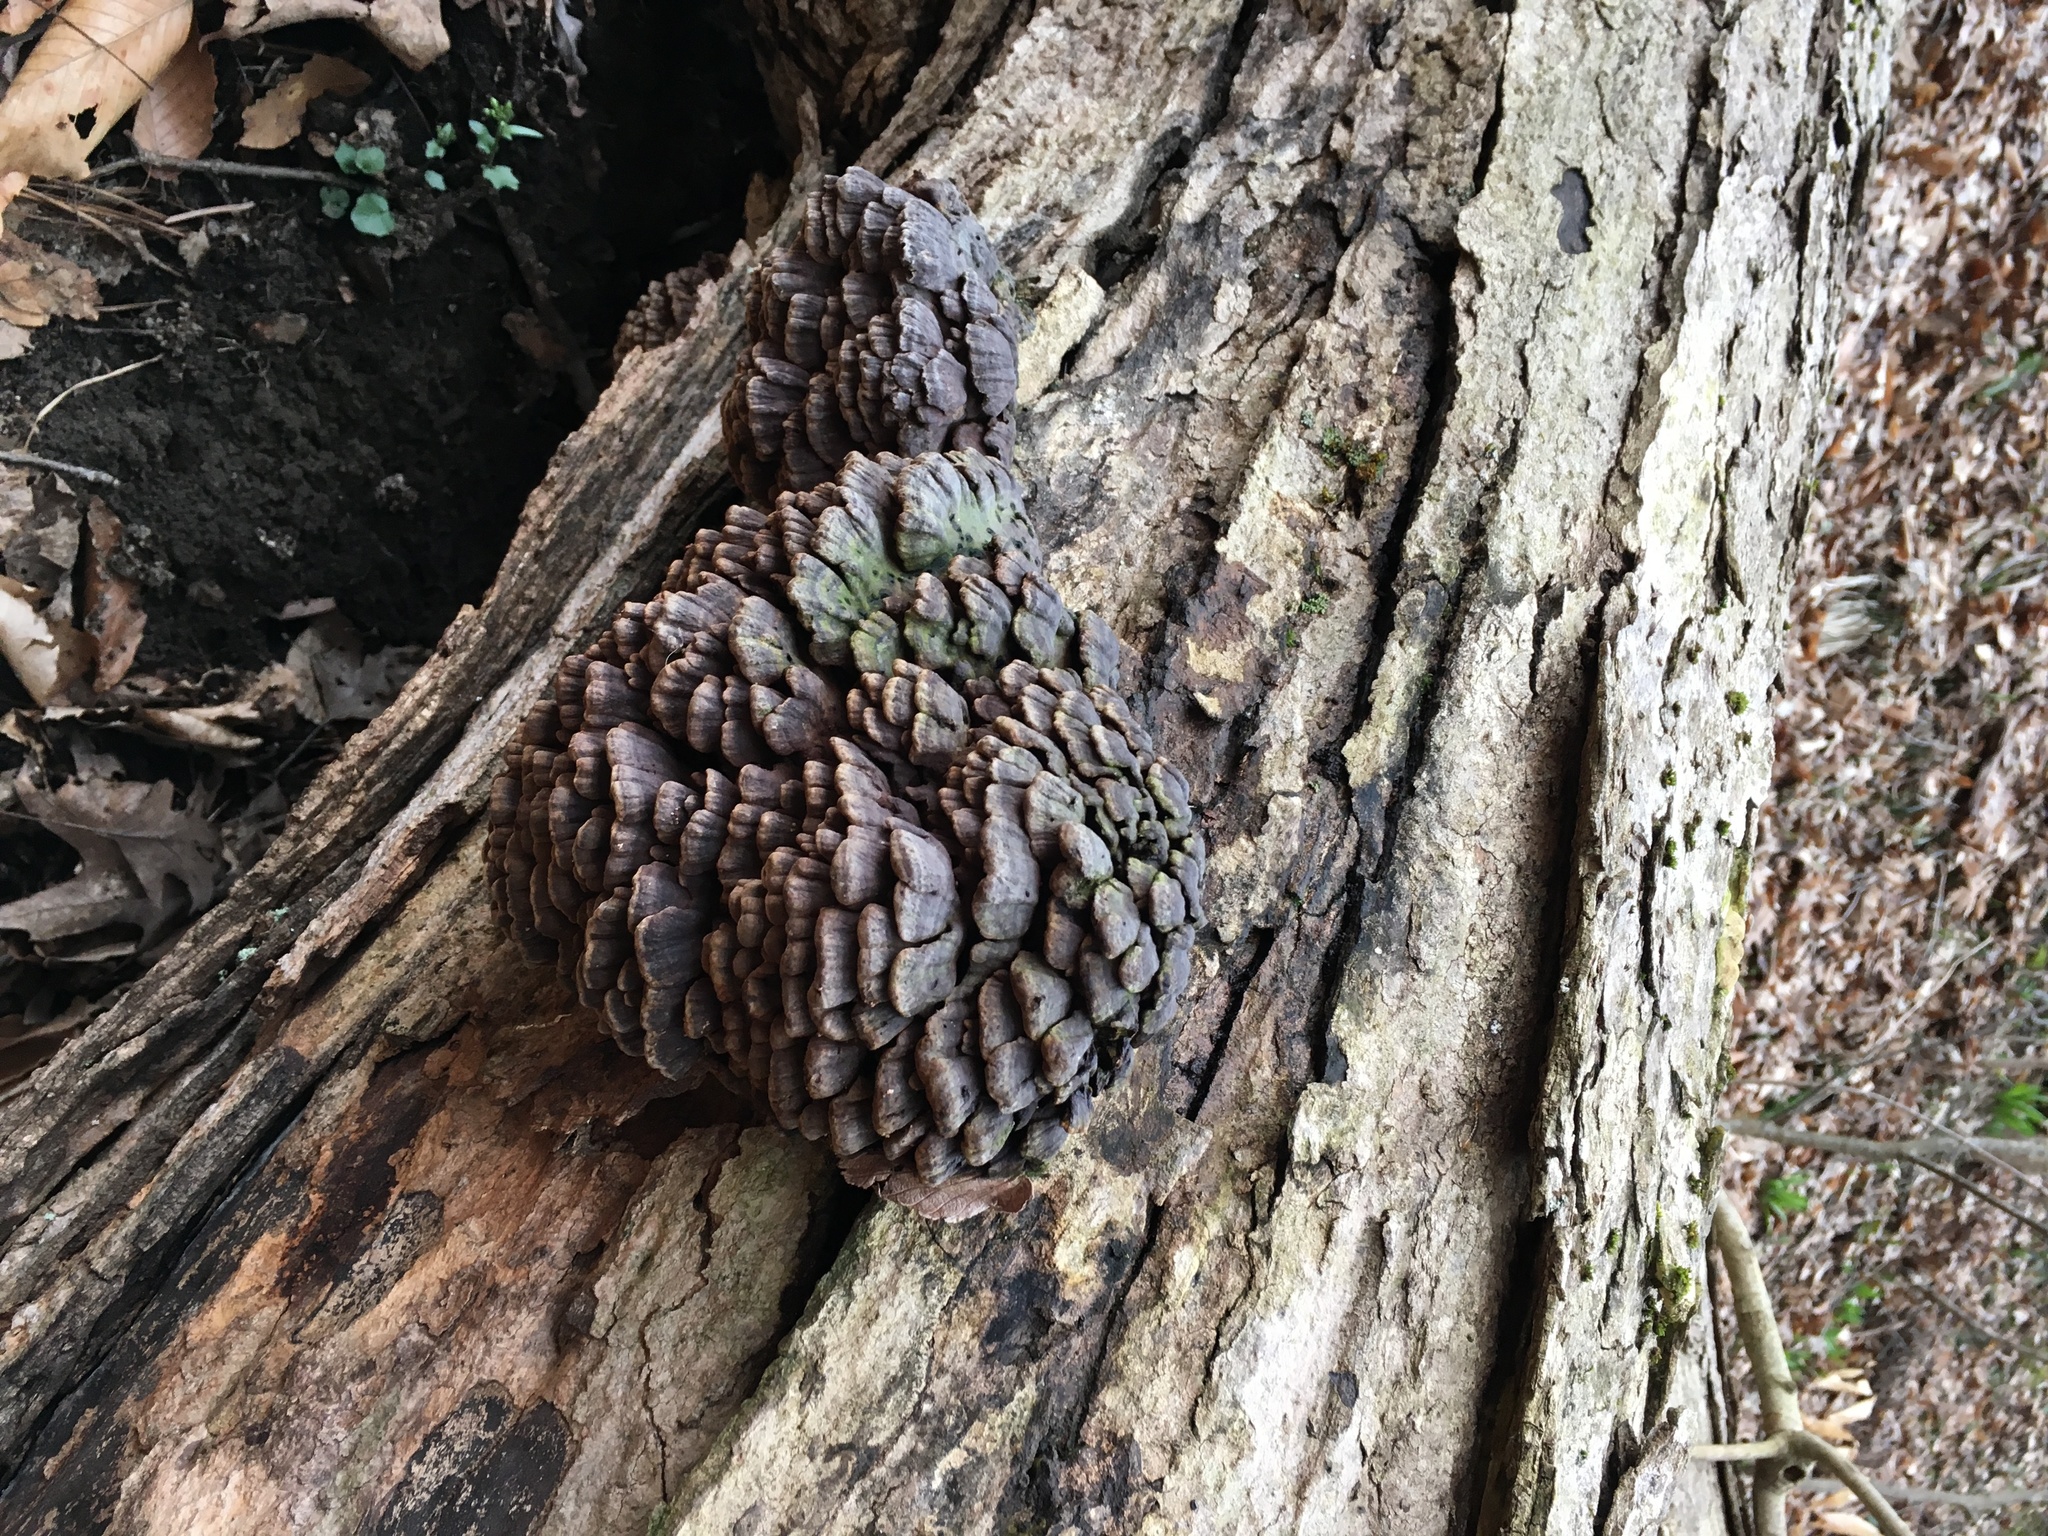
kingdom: Fungi
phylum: Basidiomycota
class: Agaricomycetes
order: Polyporales
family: Polyporaceae
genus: Globifomes
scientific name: Globifomes graveolens
